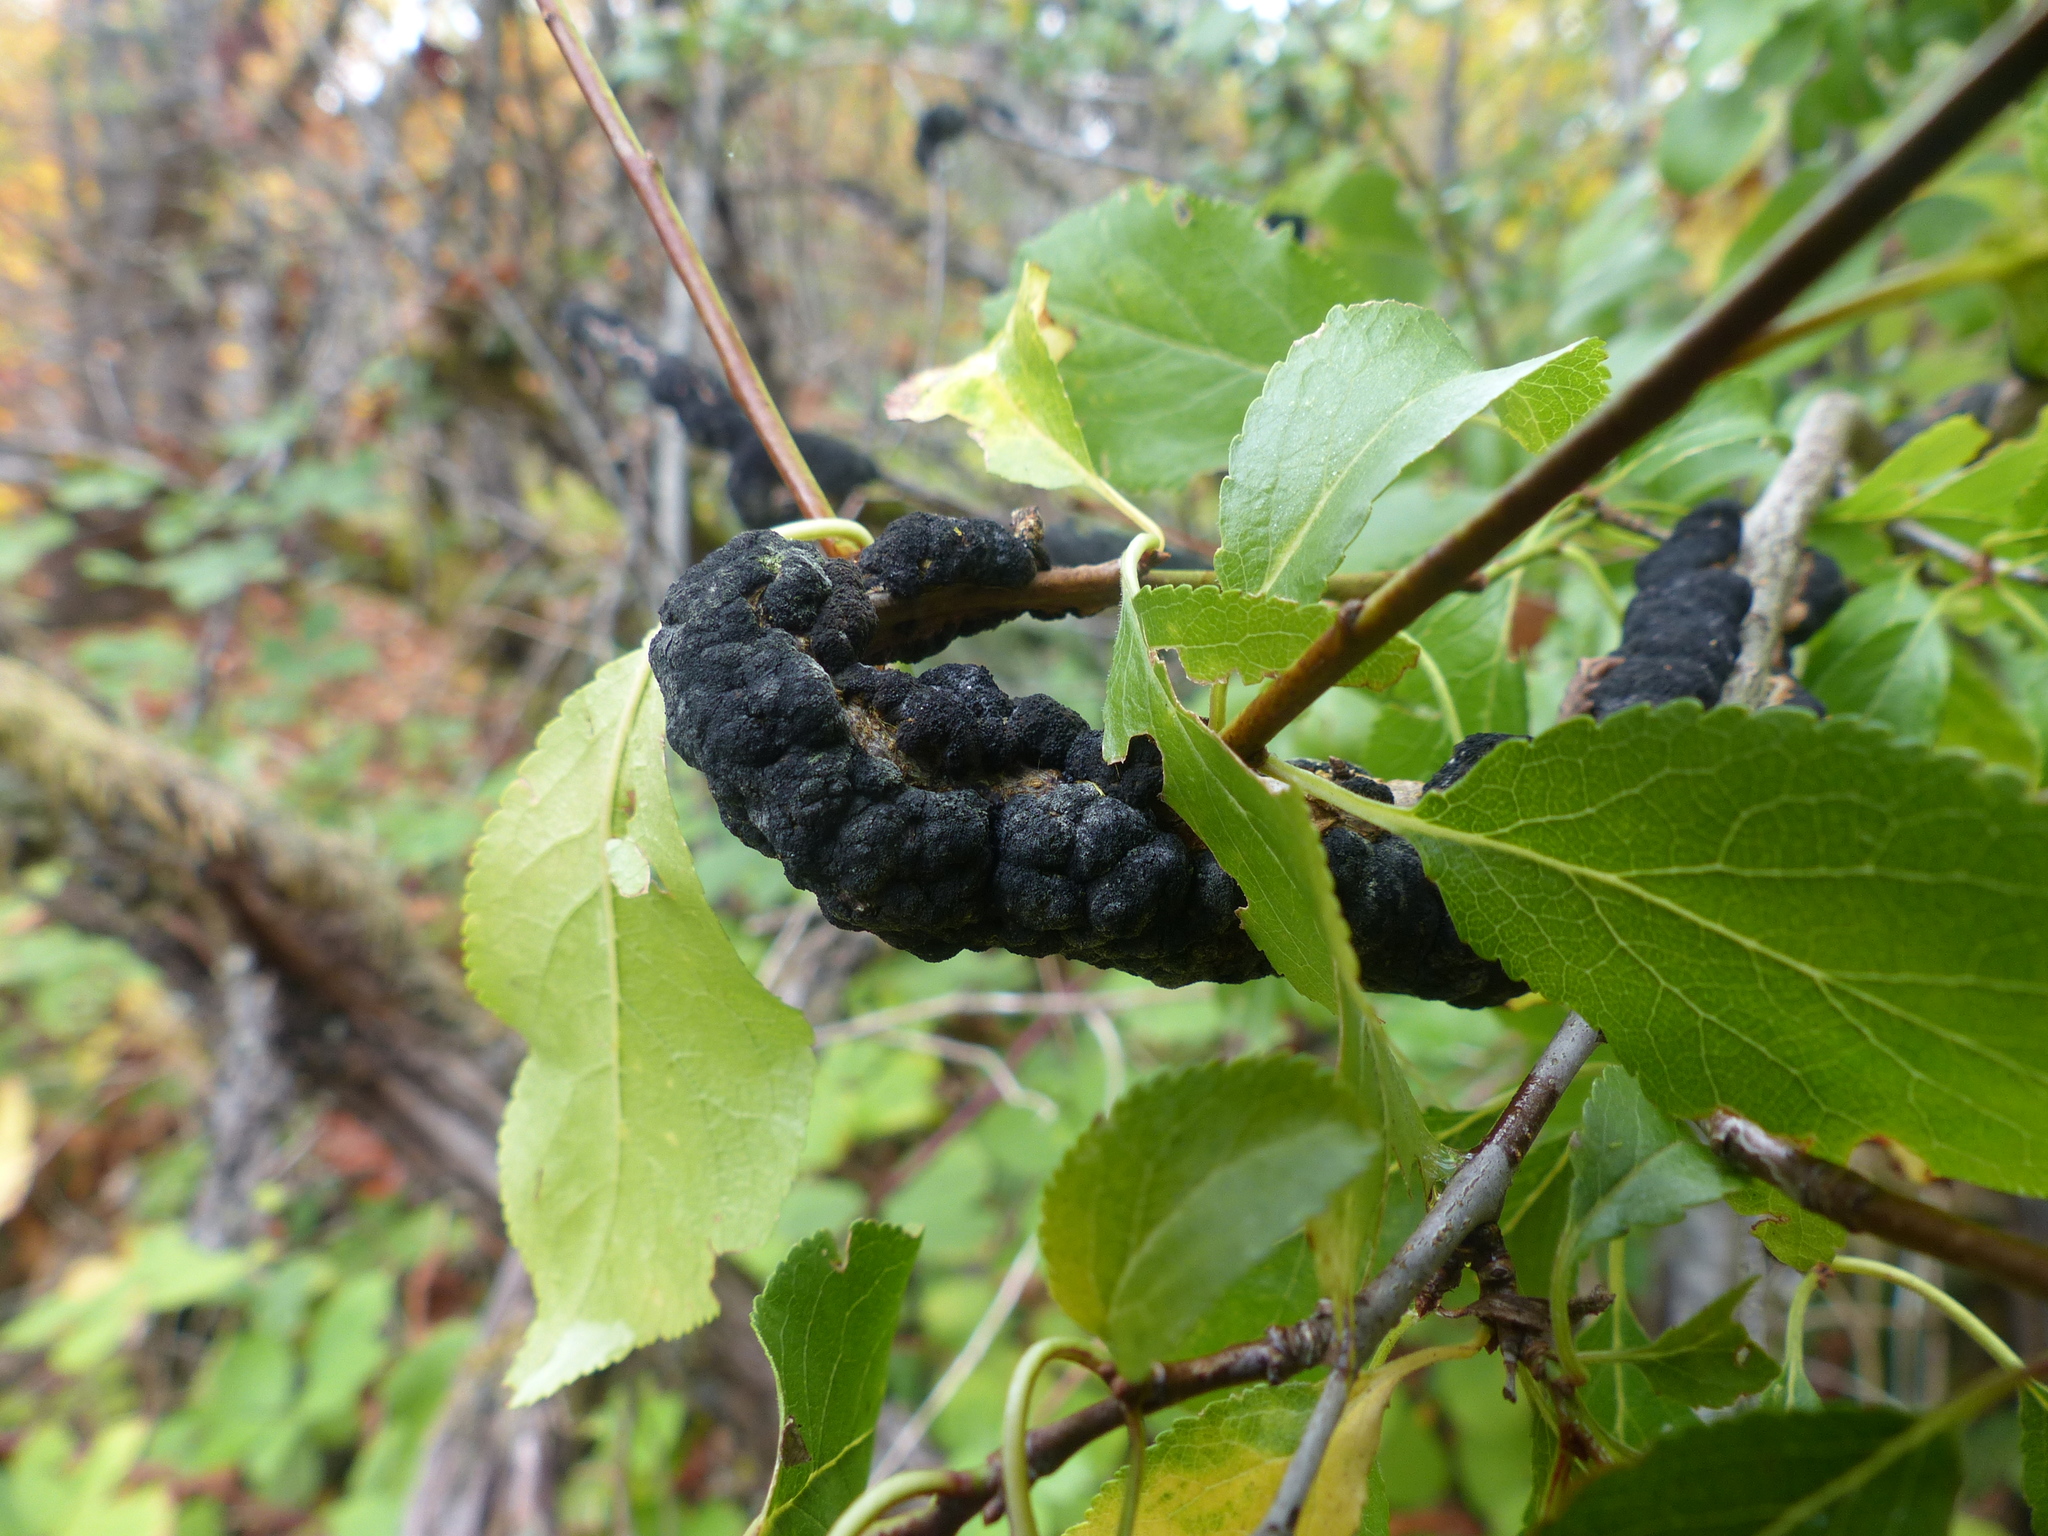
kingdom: Fungi
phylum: Ascomycota
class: Dothideomycetes
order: Venturiales
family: Venturiaceae
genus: Apiosporina
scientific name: Apiosporina morbosa
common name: Black knot
